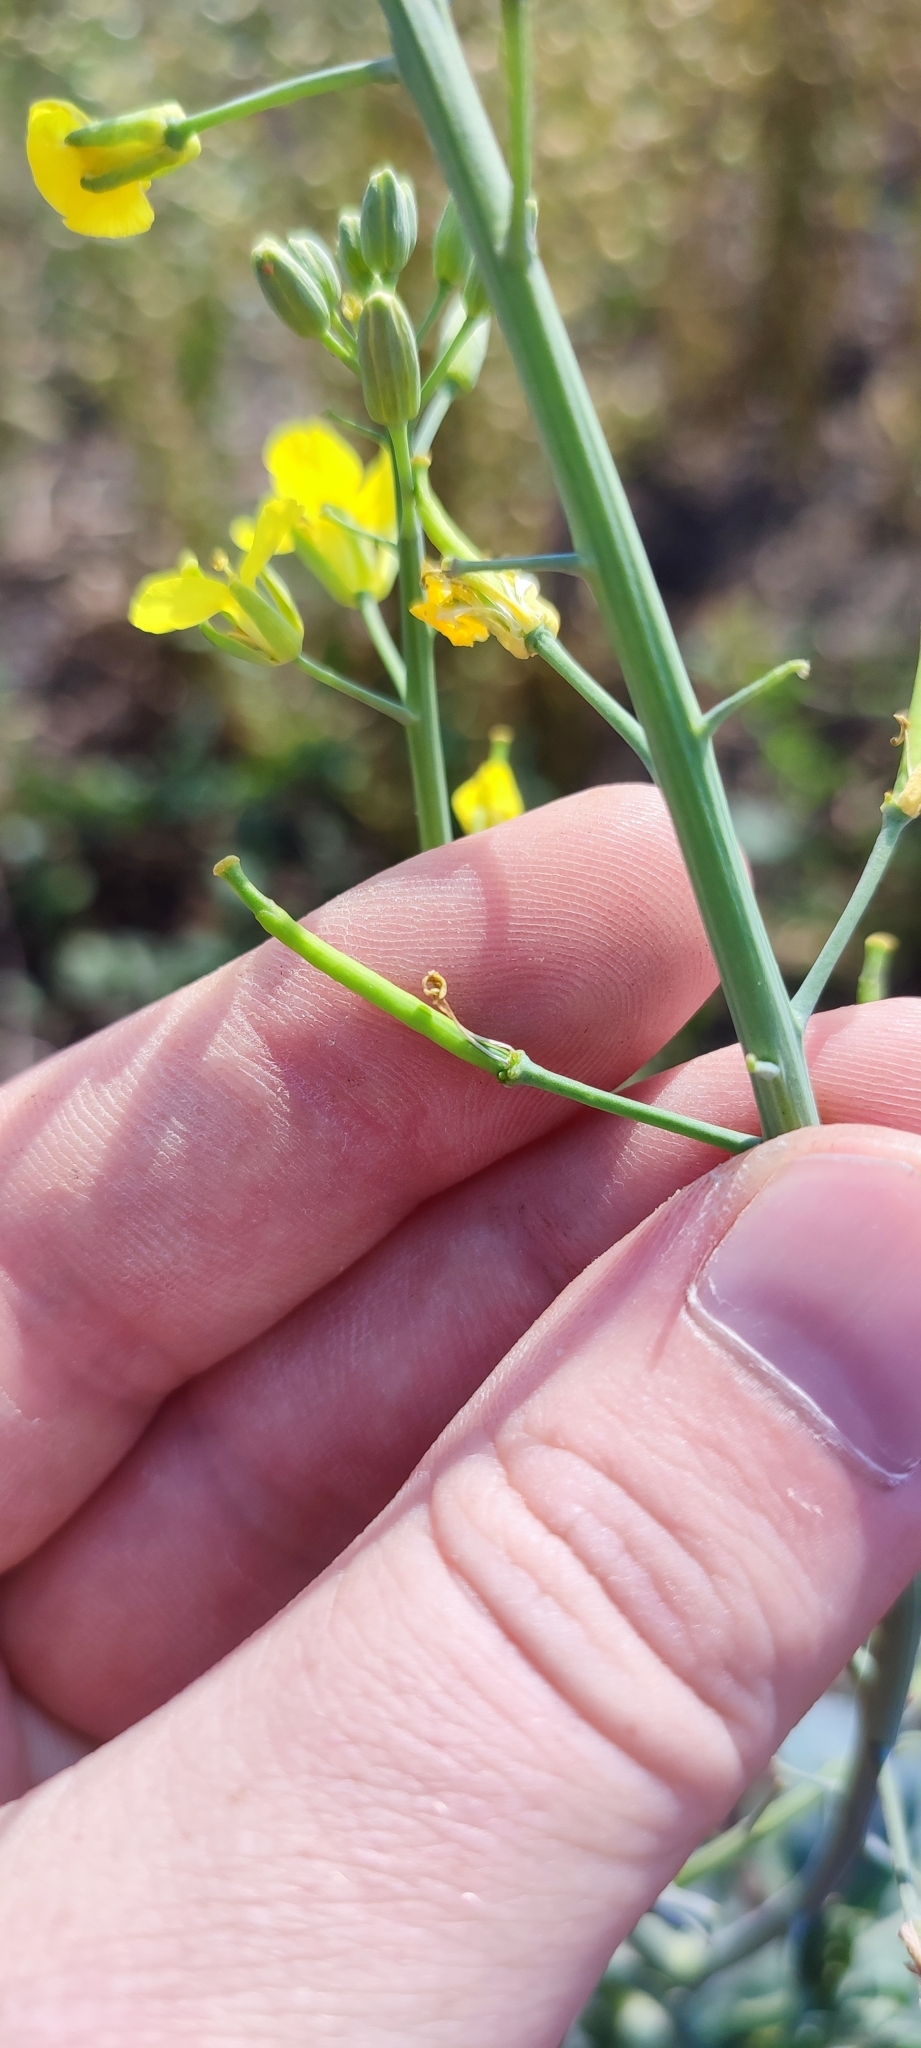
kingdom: Plantae
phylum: Tracheophyta
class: Magnoliopsida
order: Brassicales
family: Brassicaceae
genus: Brassica
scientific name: Brassica napus
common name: Rape
